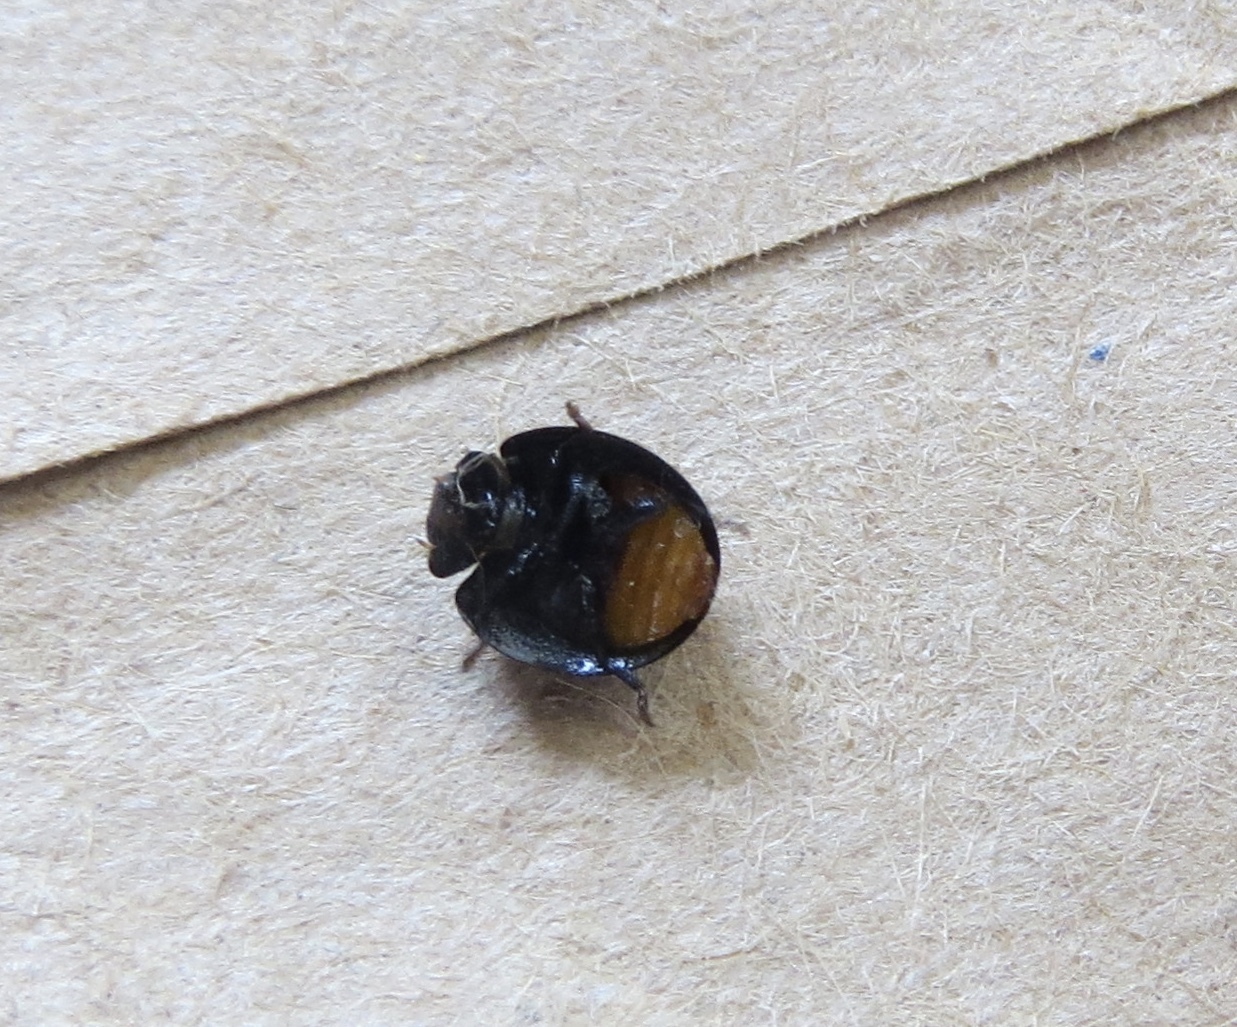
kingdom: Animalia
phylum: Arthropoda
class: Insecta
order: Coleoptera
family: Coccinellidae
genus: Halmus
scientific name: Halmus chalybeus
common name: Steel blue ladybird beetle
